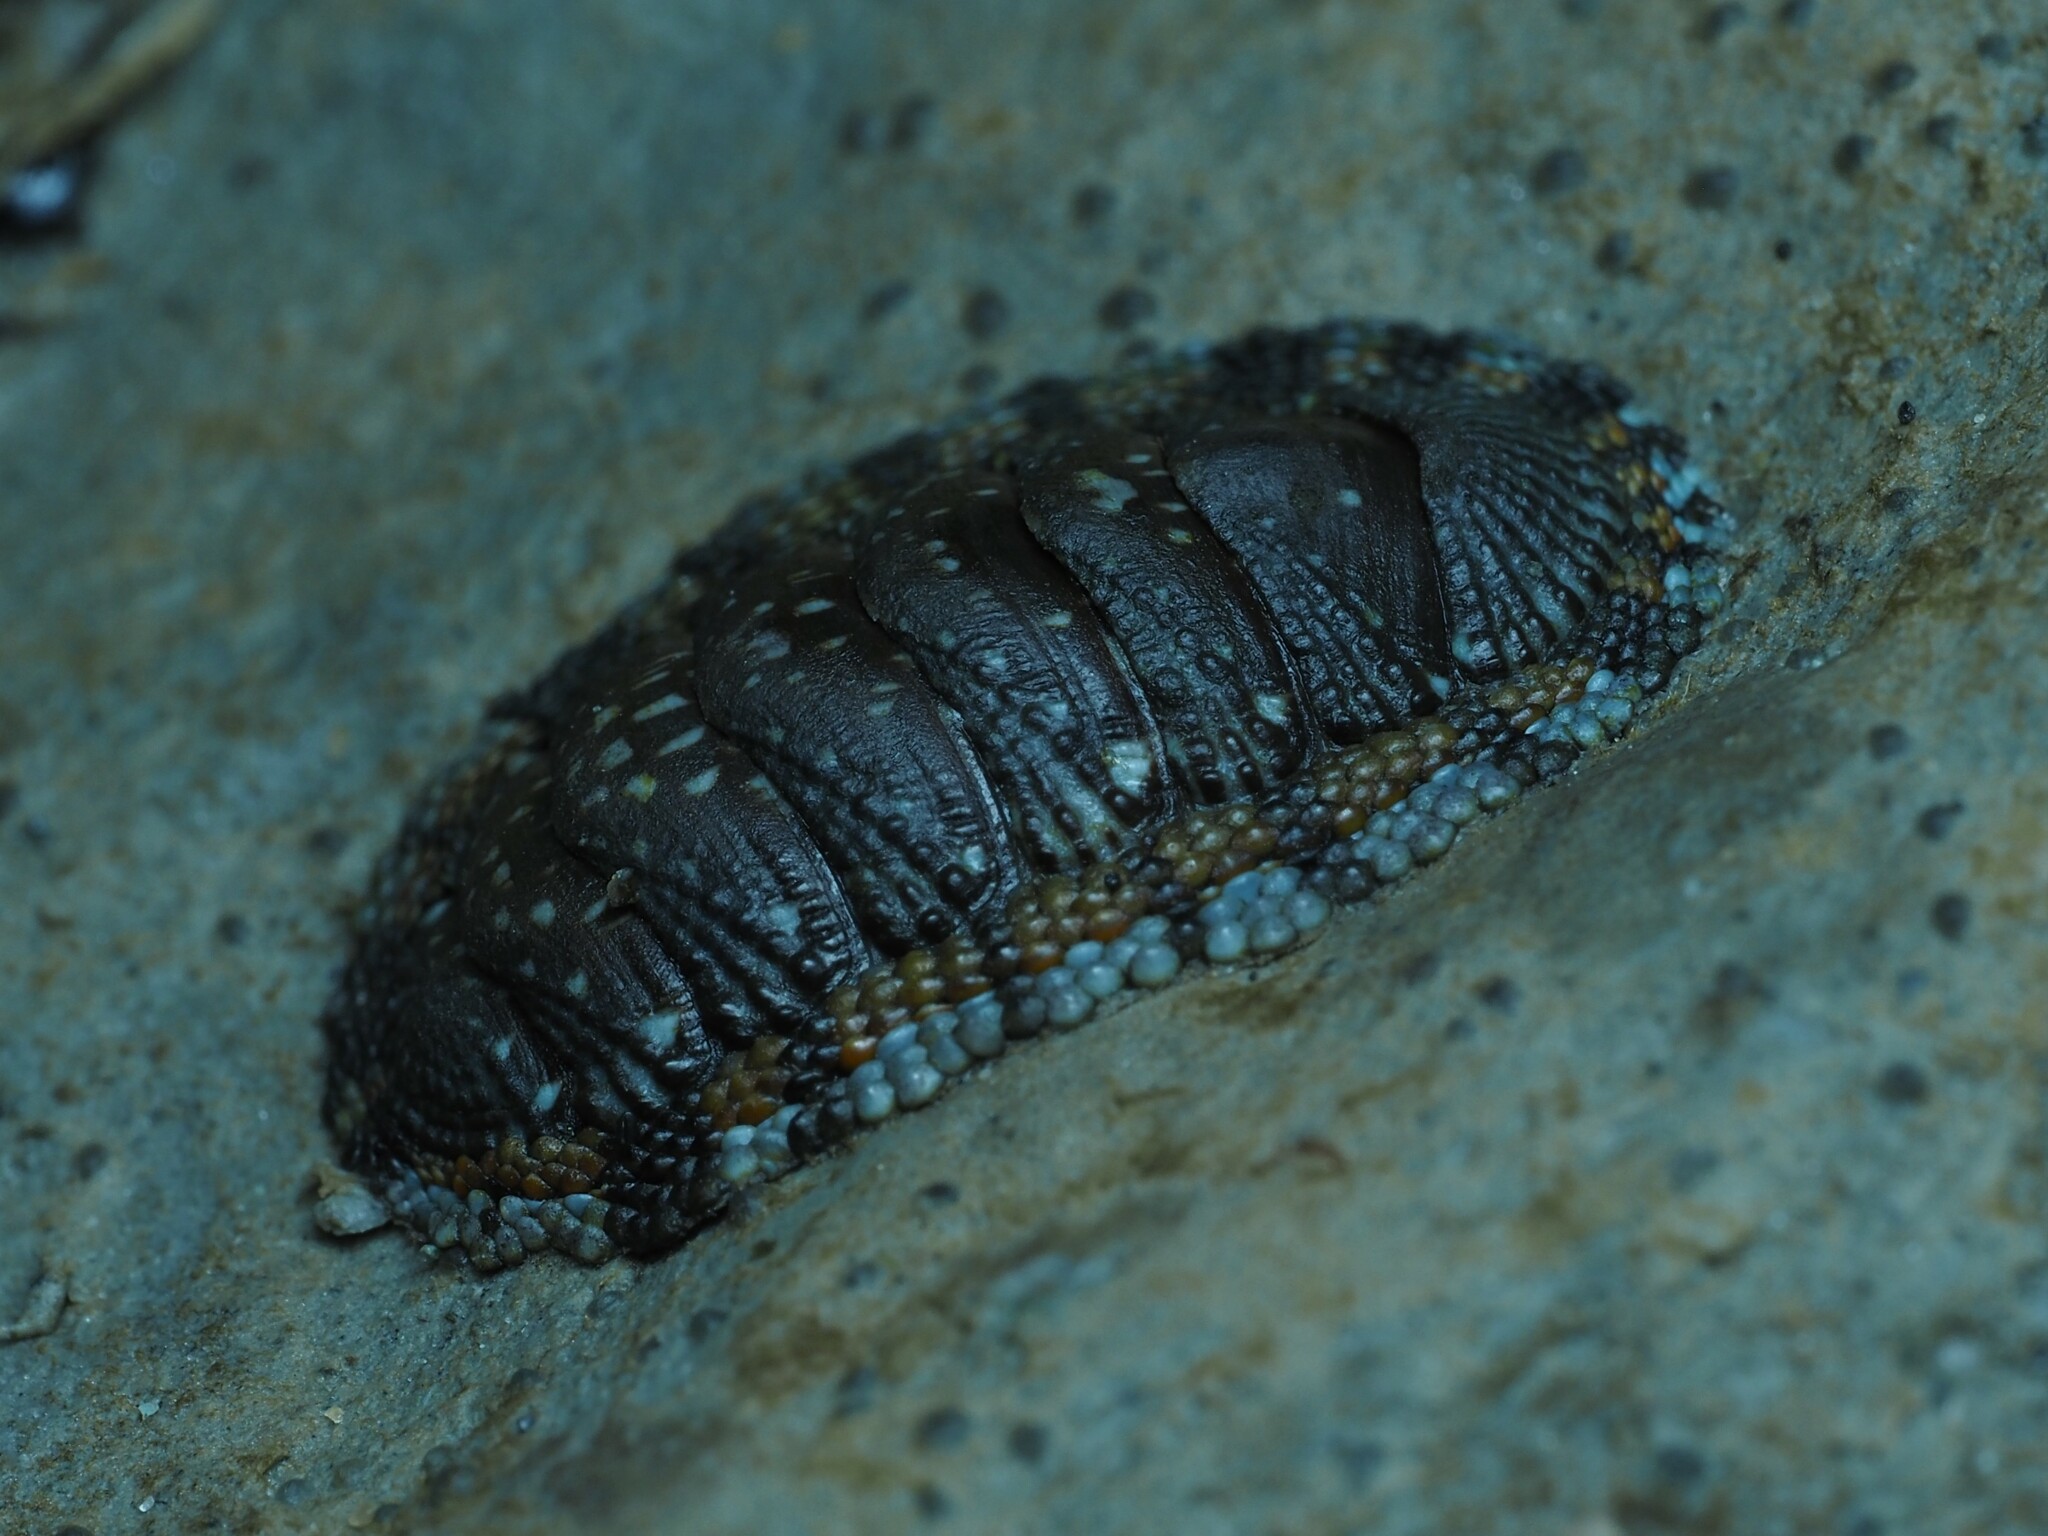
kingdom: Animalia
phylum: Mollusca
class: Polyplacophora
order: Chitonida
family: Chitonidae
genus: Sypharochiton
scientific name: Sypharochiton sinclairi
